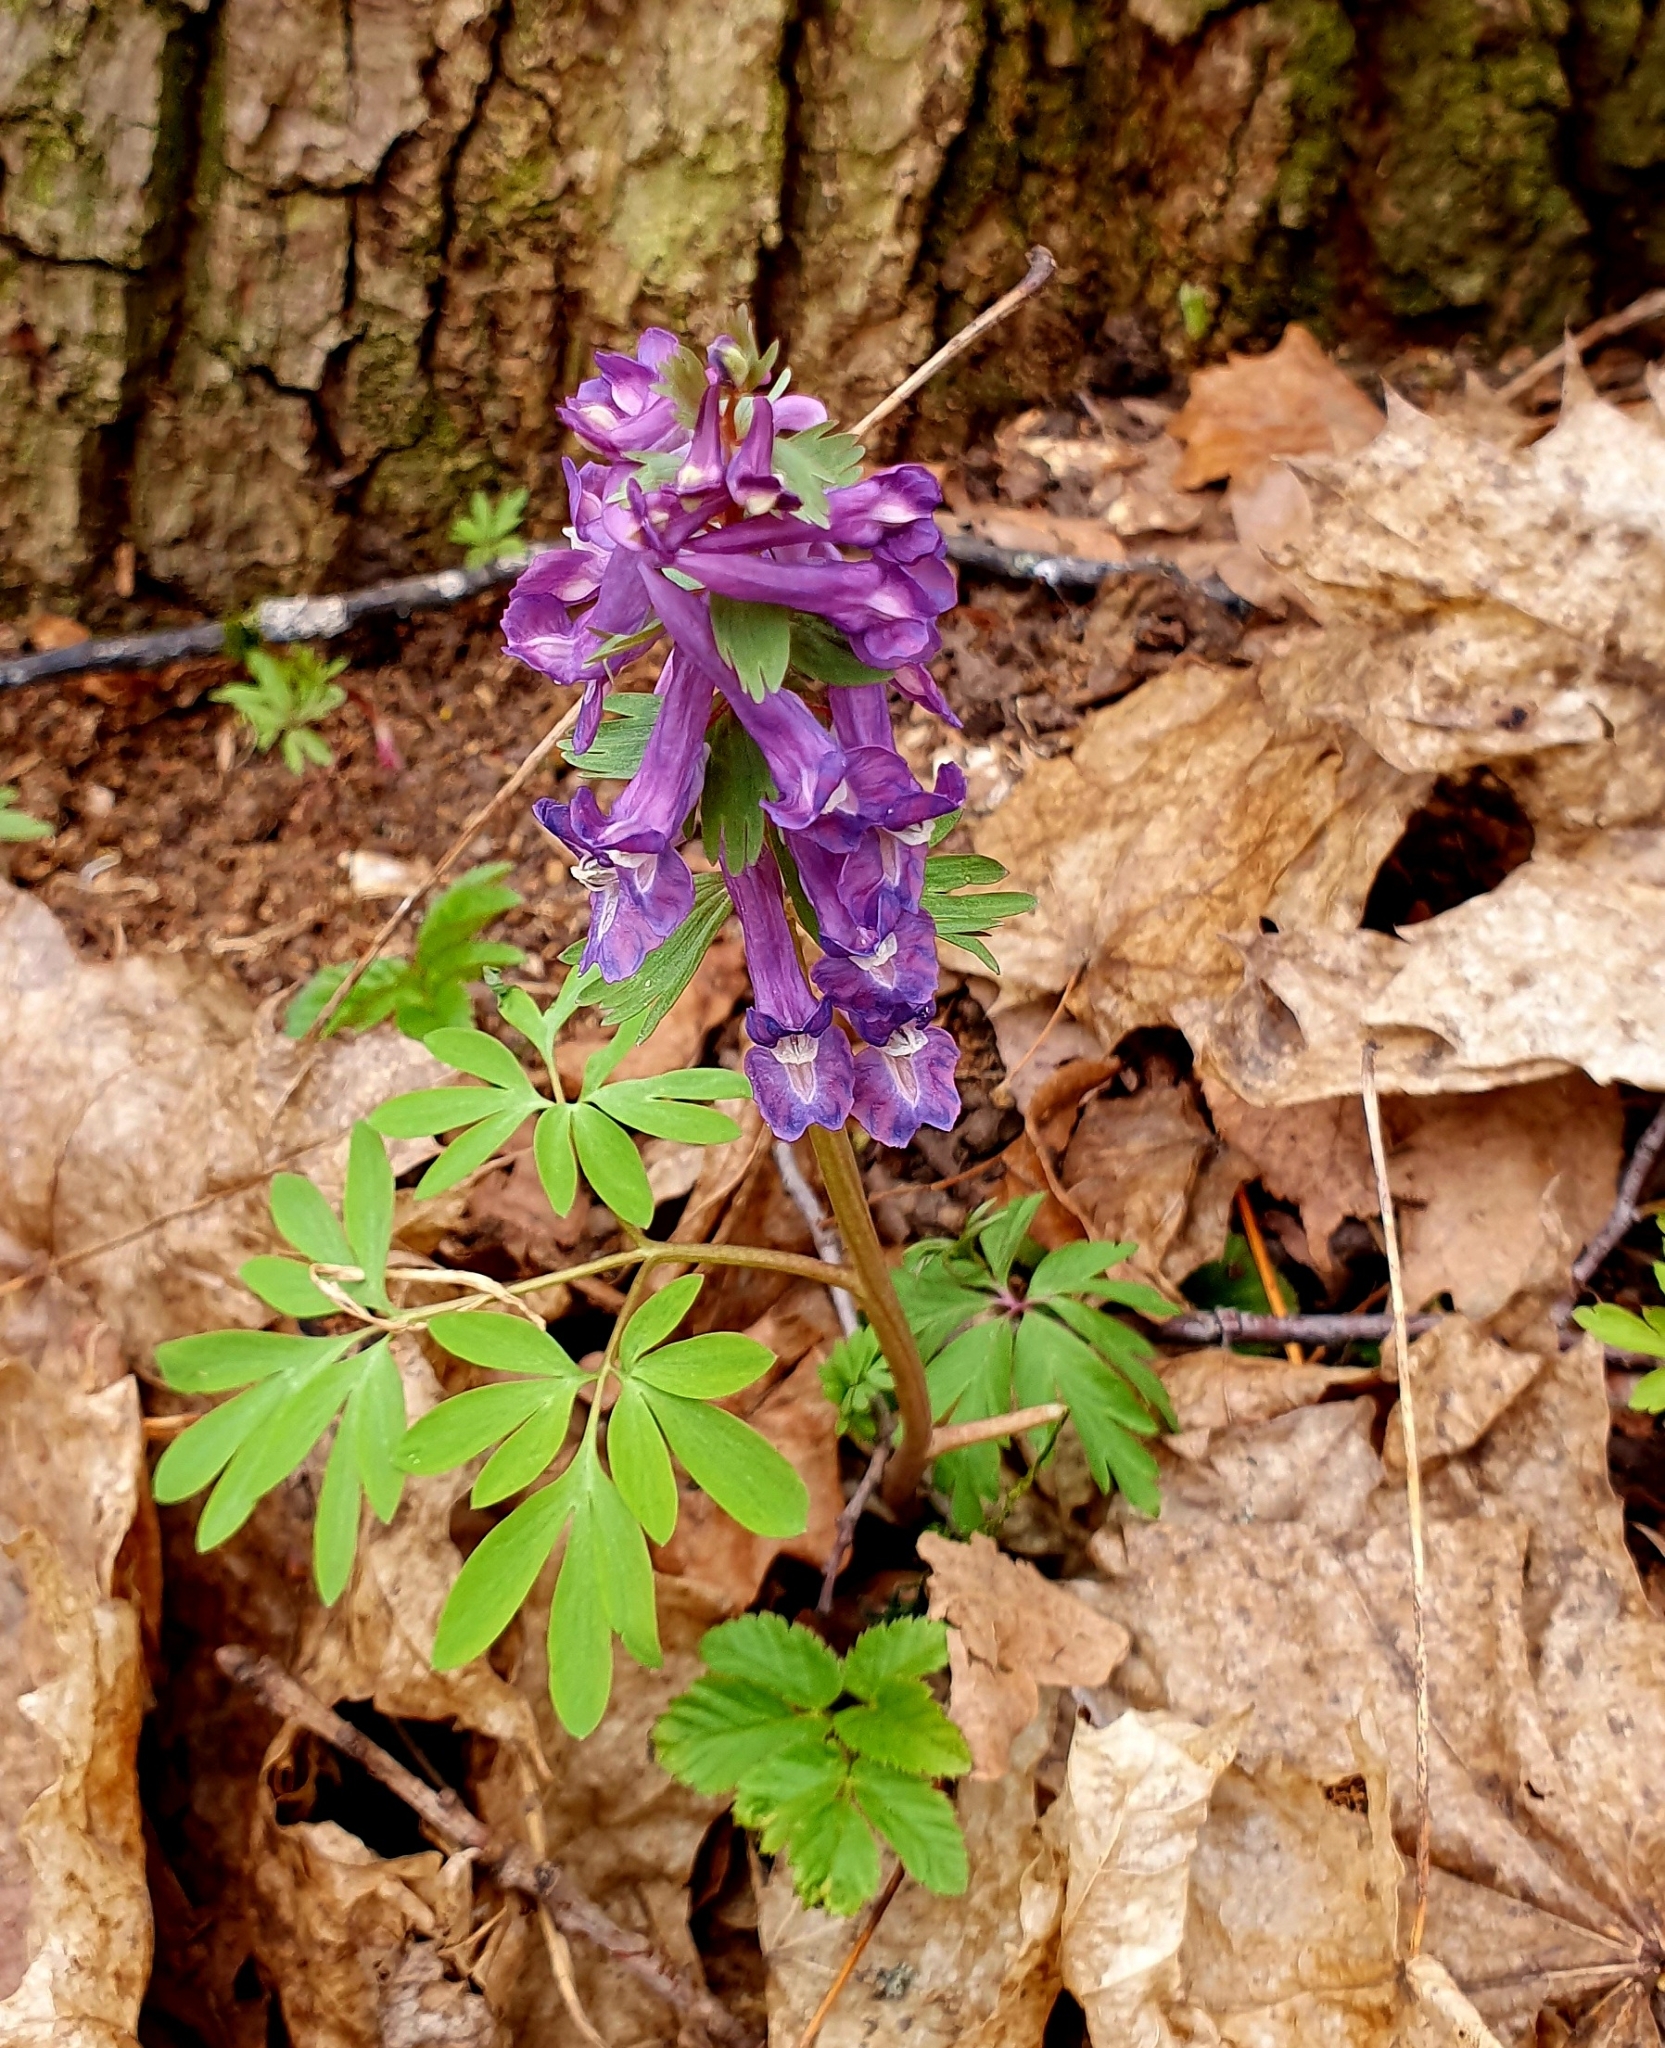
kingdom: Plantae
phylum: Tracheophyta
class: Magnoliopsida
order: Ranunculales
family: Papaveraceae
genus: Corydalis
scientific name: Corydalis solida
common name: Bird-in-a-bush
